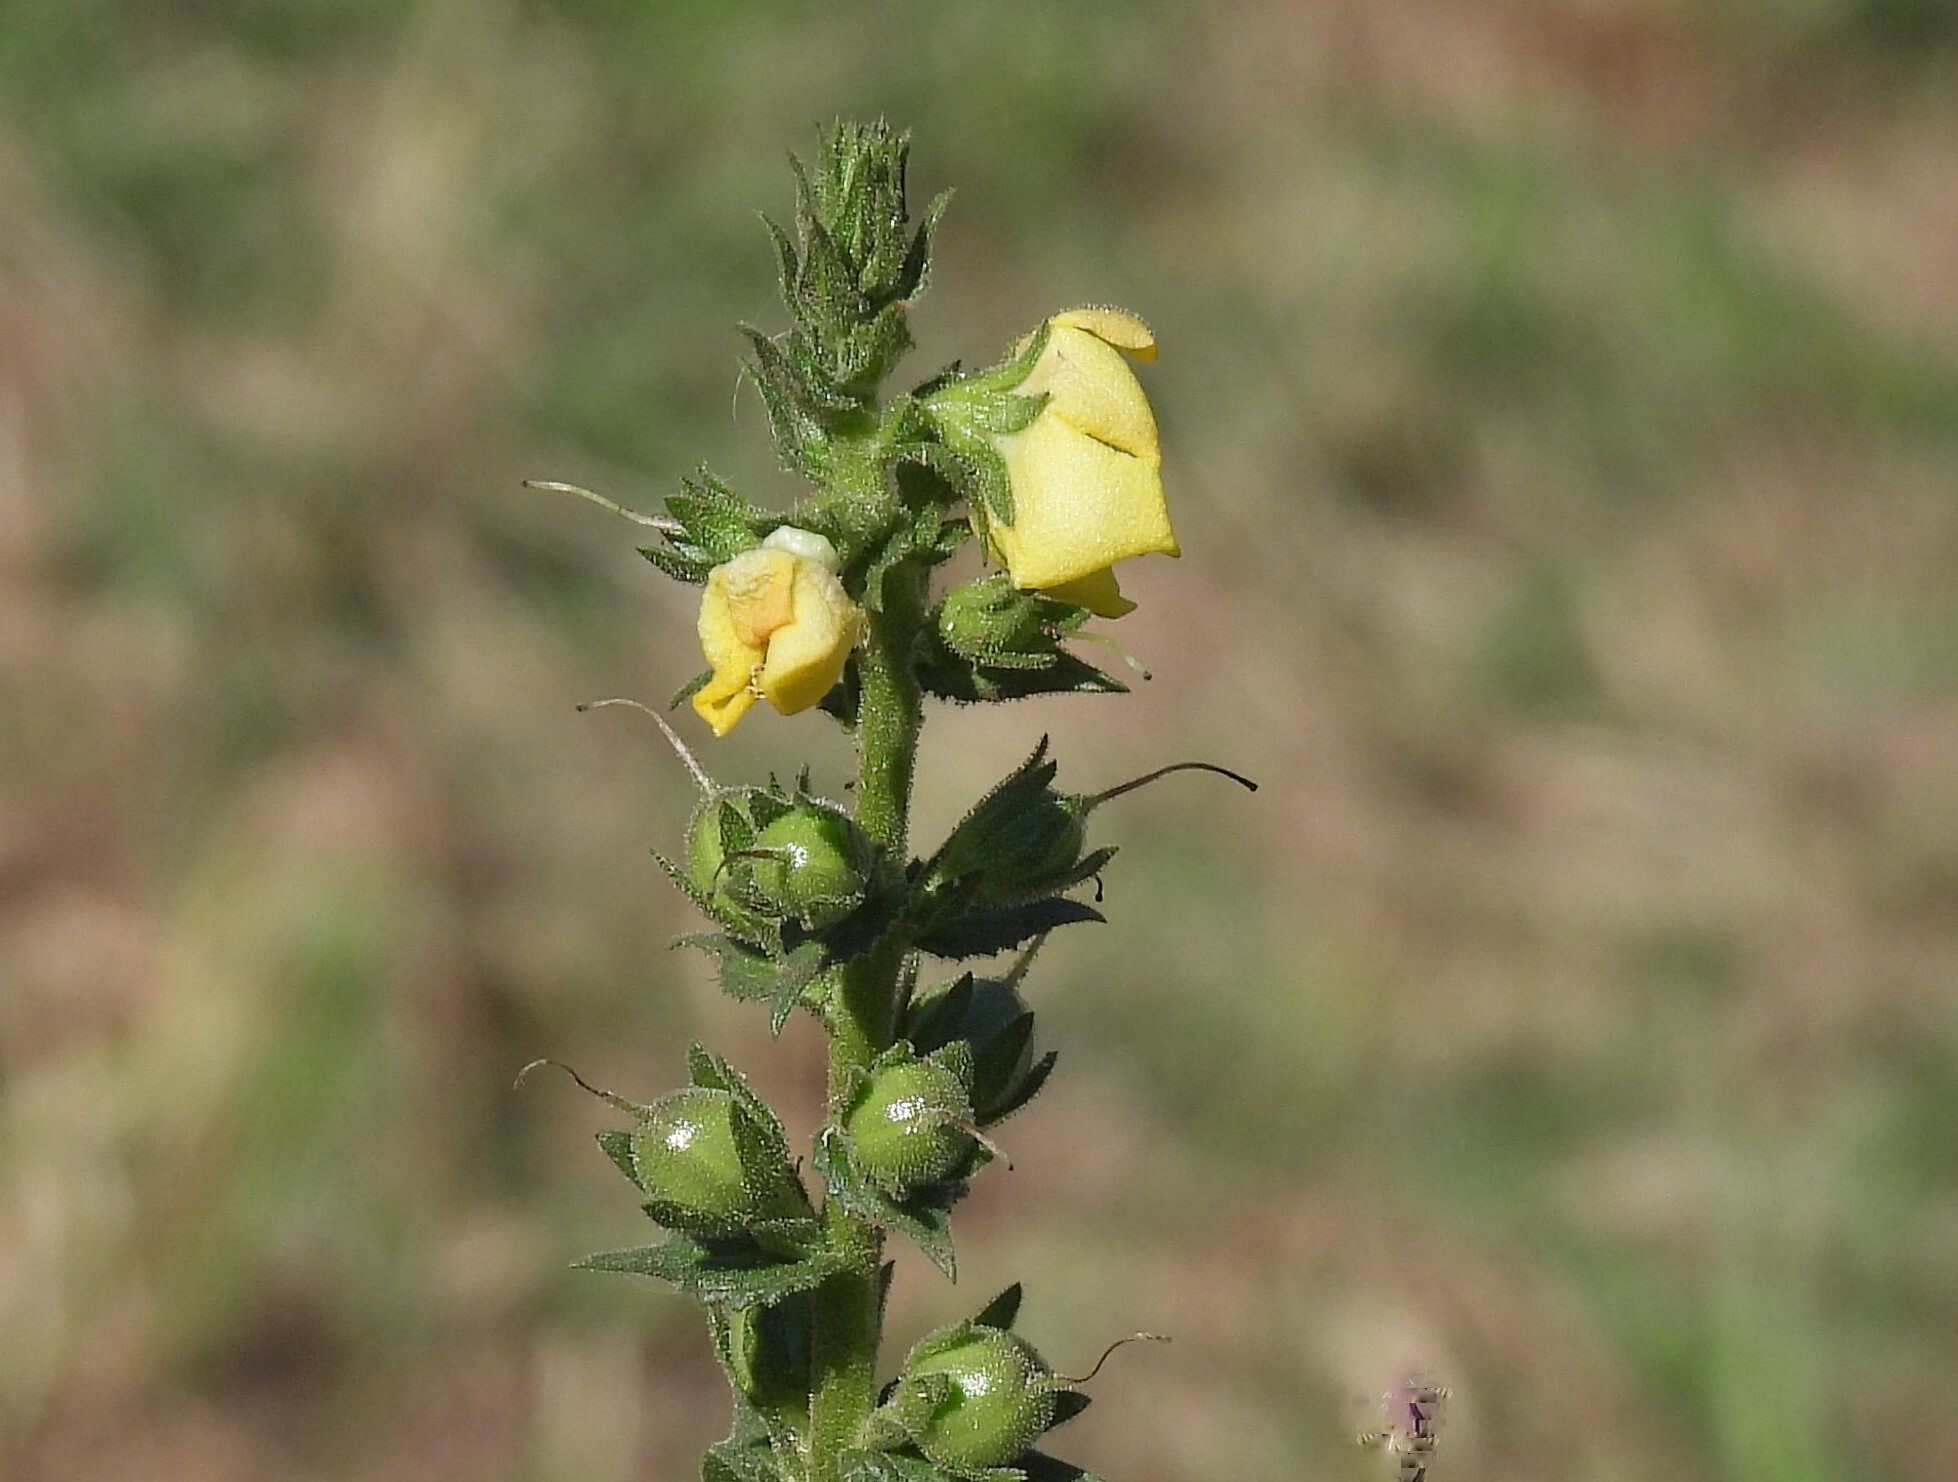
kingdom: Plantae
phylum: Tracheophyta
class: Magnoliopsida
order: Lamiales
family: Scrophulariaceae
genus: Verbascum
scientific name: Verbascum virgatum
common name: Twiggy mullein
